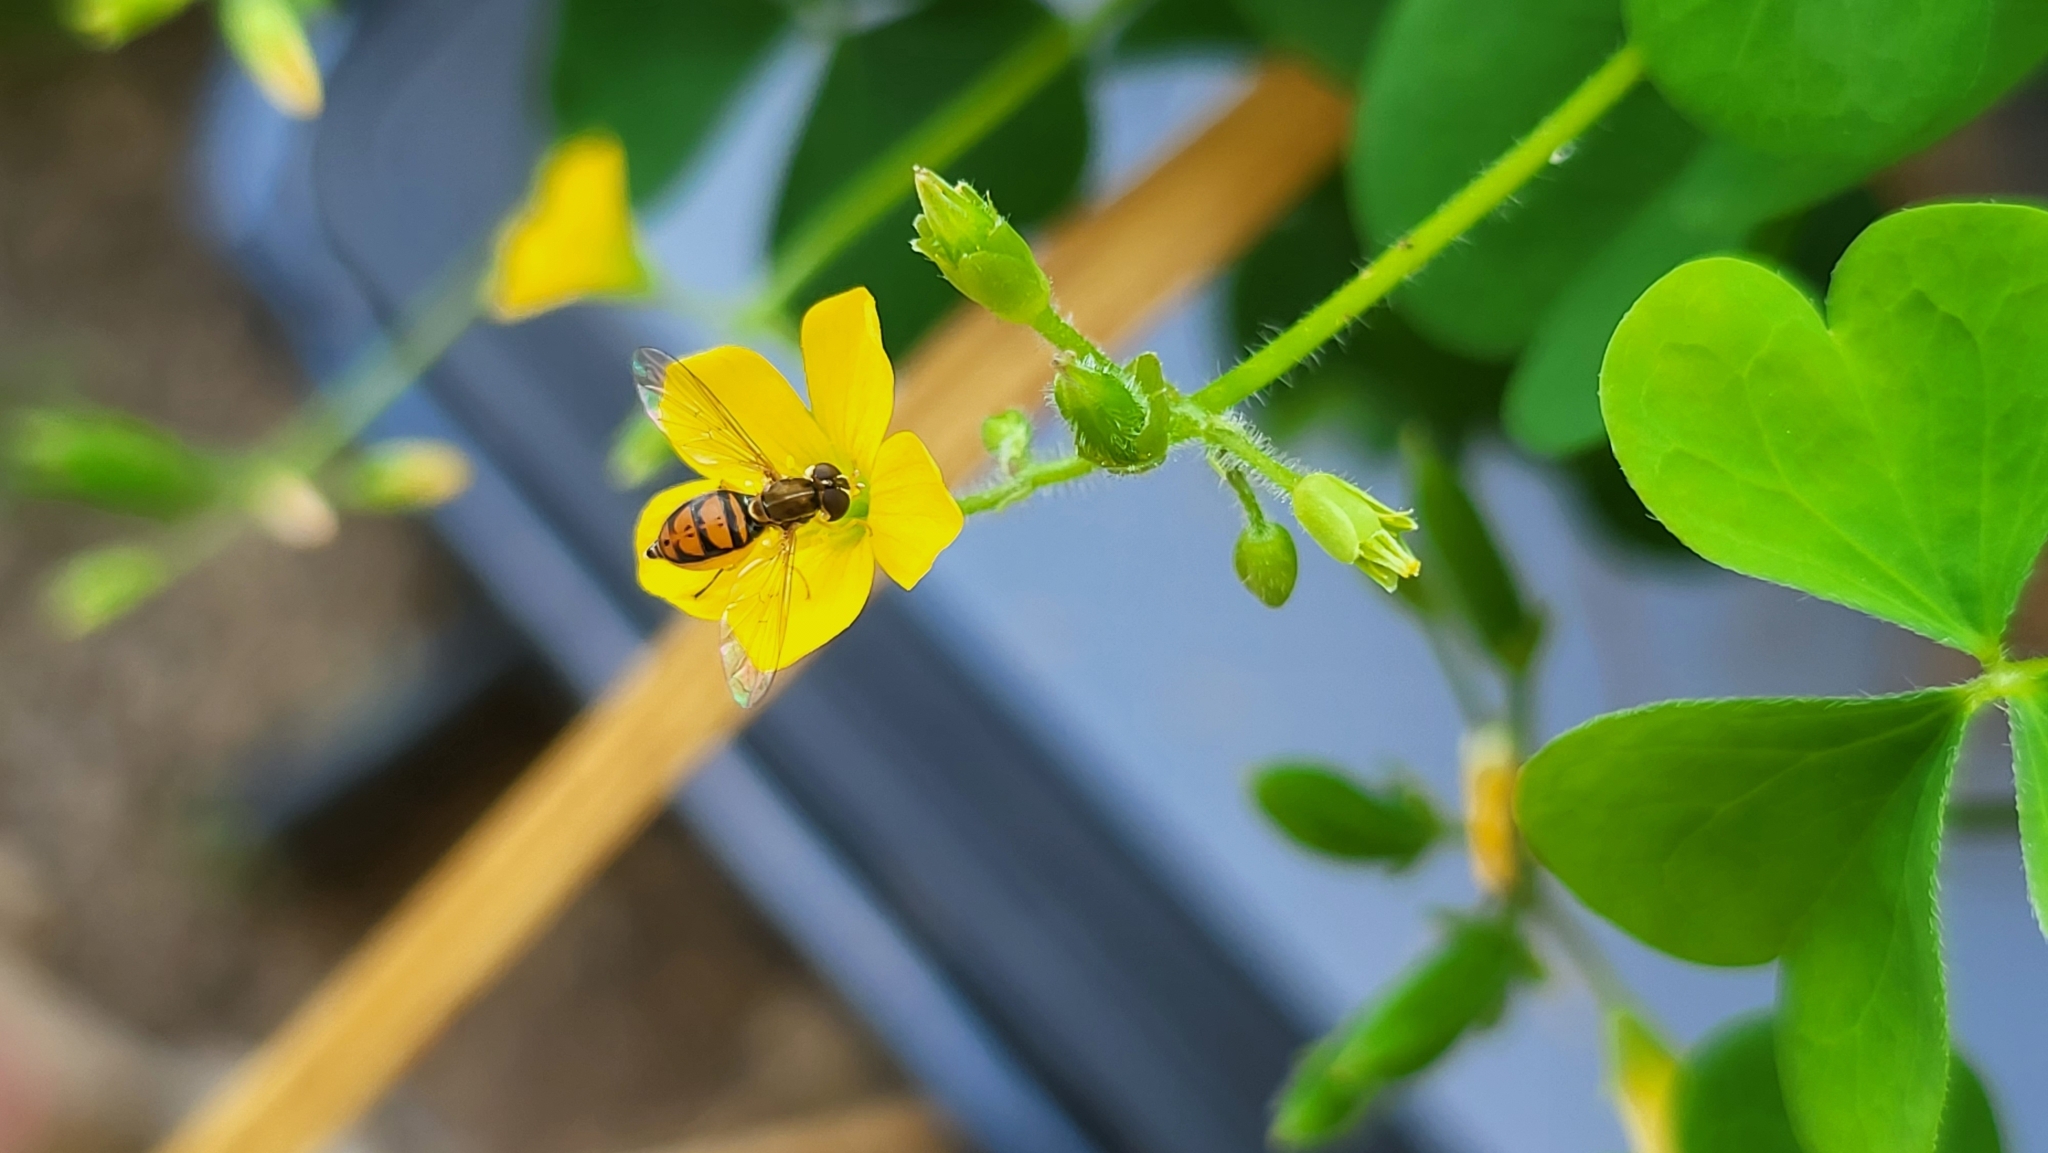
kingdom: Animalia
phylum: Arthropoda
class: Insecta
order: Diptera
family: Syrphidae
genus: Toxomerus
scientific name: Toxomerus marginatus
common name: Syrphid fly
